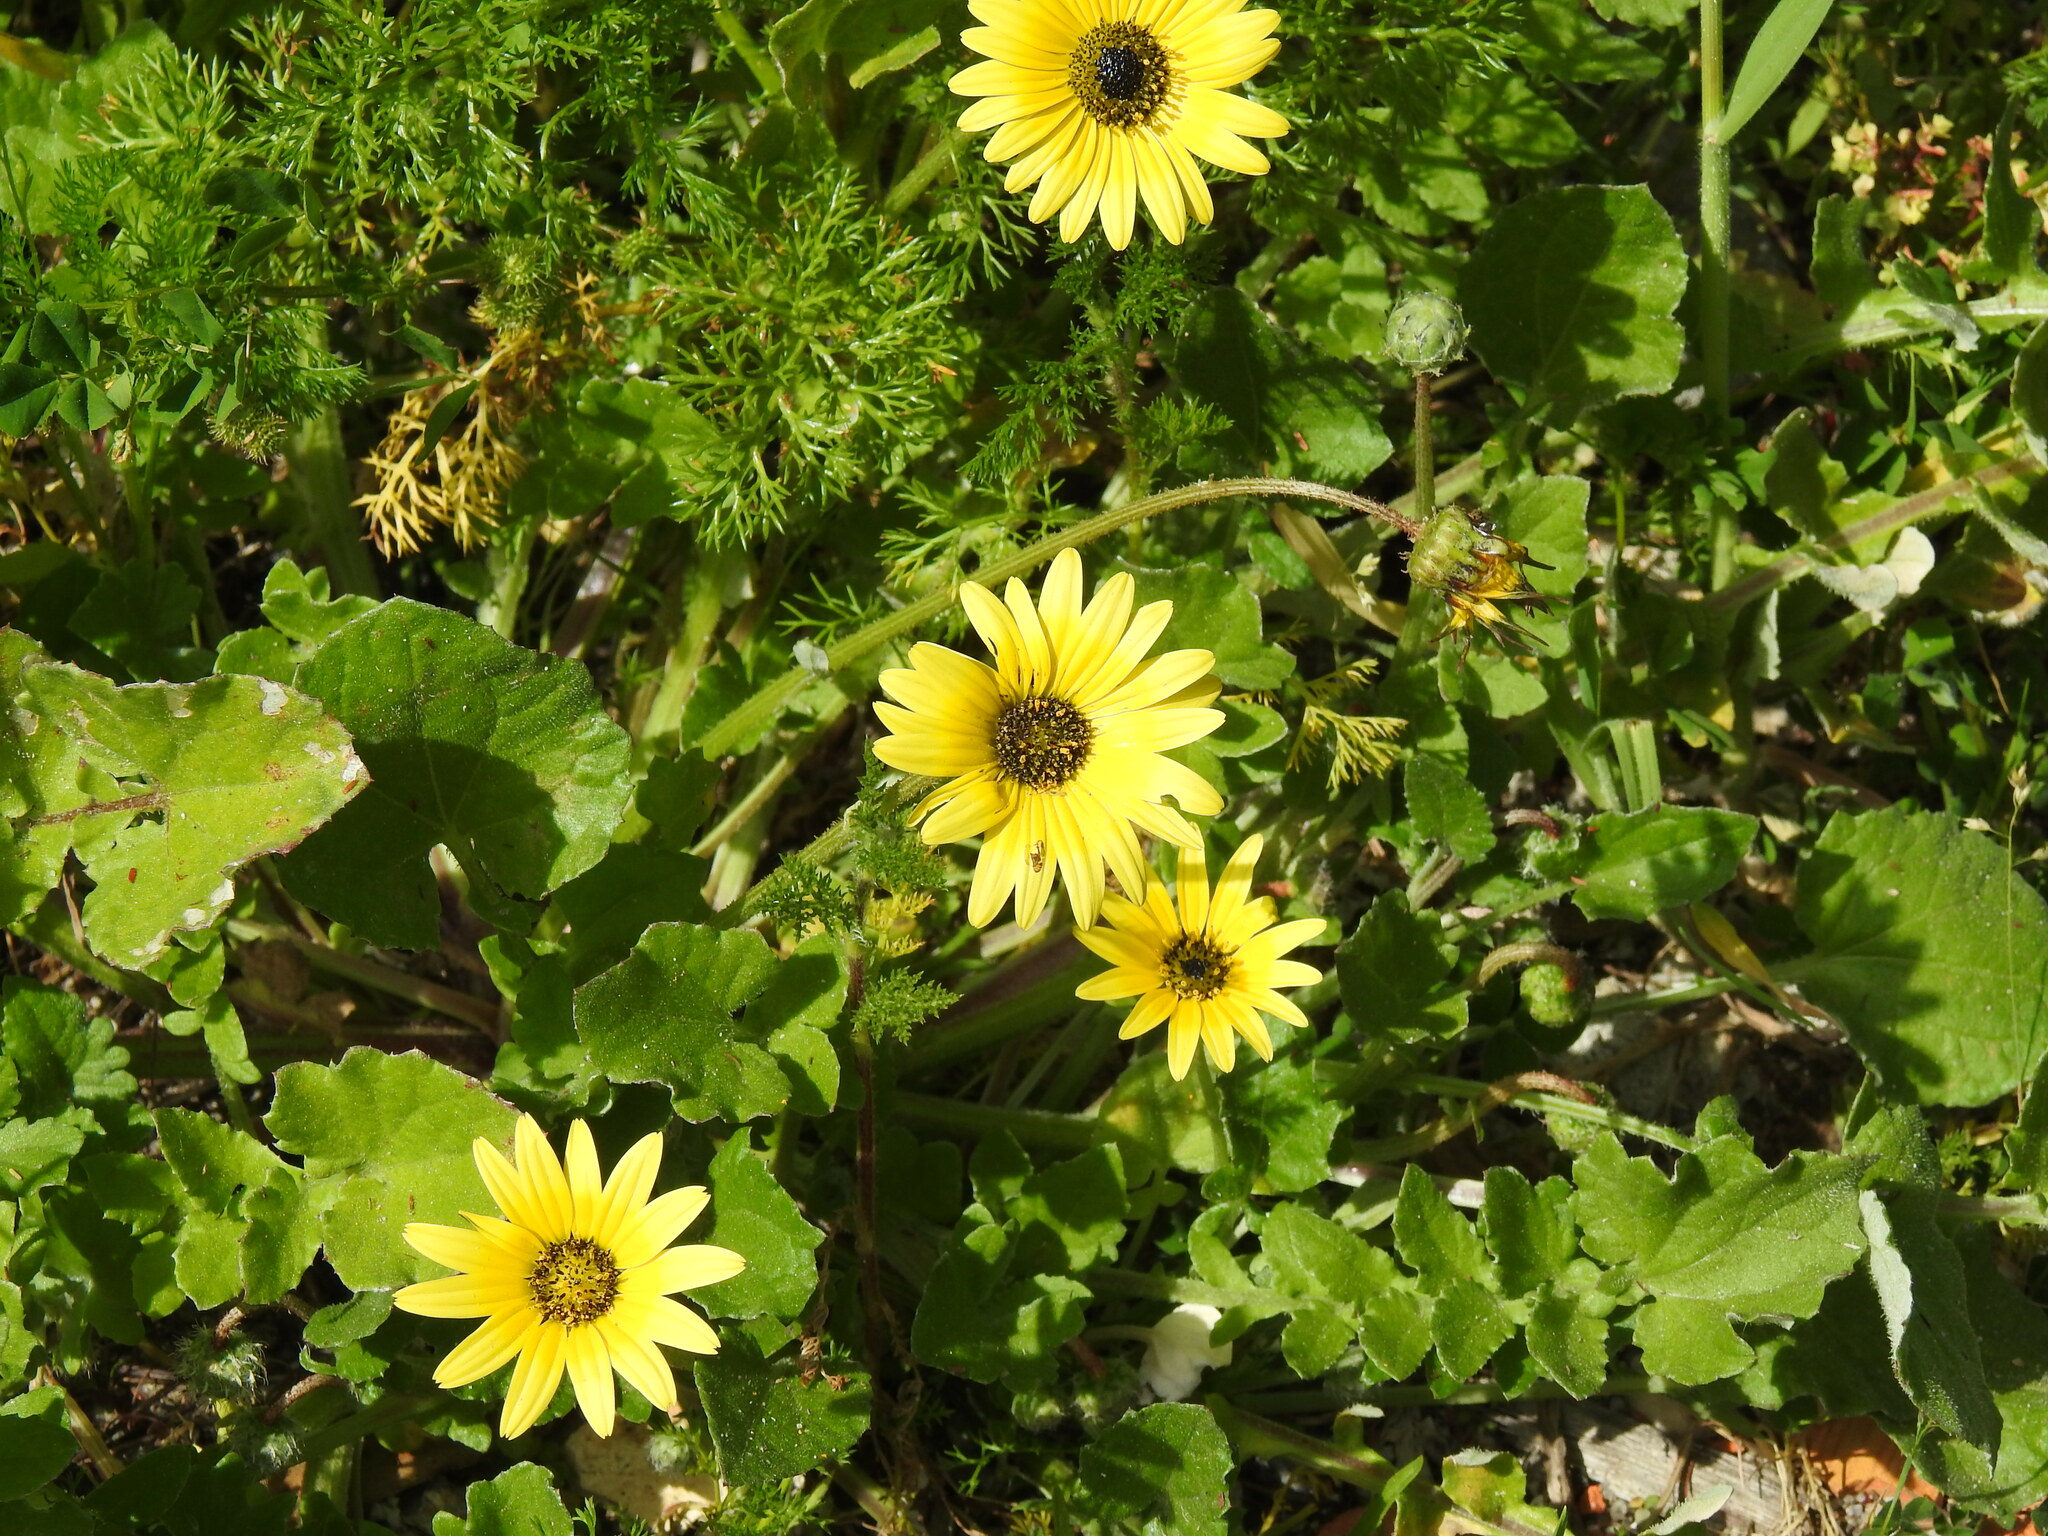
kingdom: Plantae
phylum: Tracheophyta
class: Magnoliopsida
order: Asterales
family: Asteraceae
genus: Arctotheca
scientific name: Arctotheca calendula
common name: Capeweed
